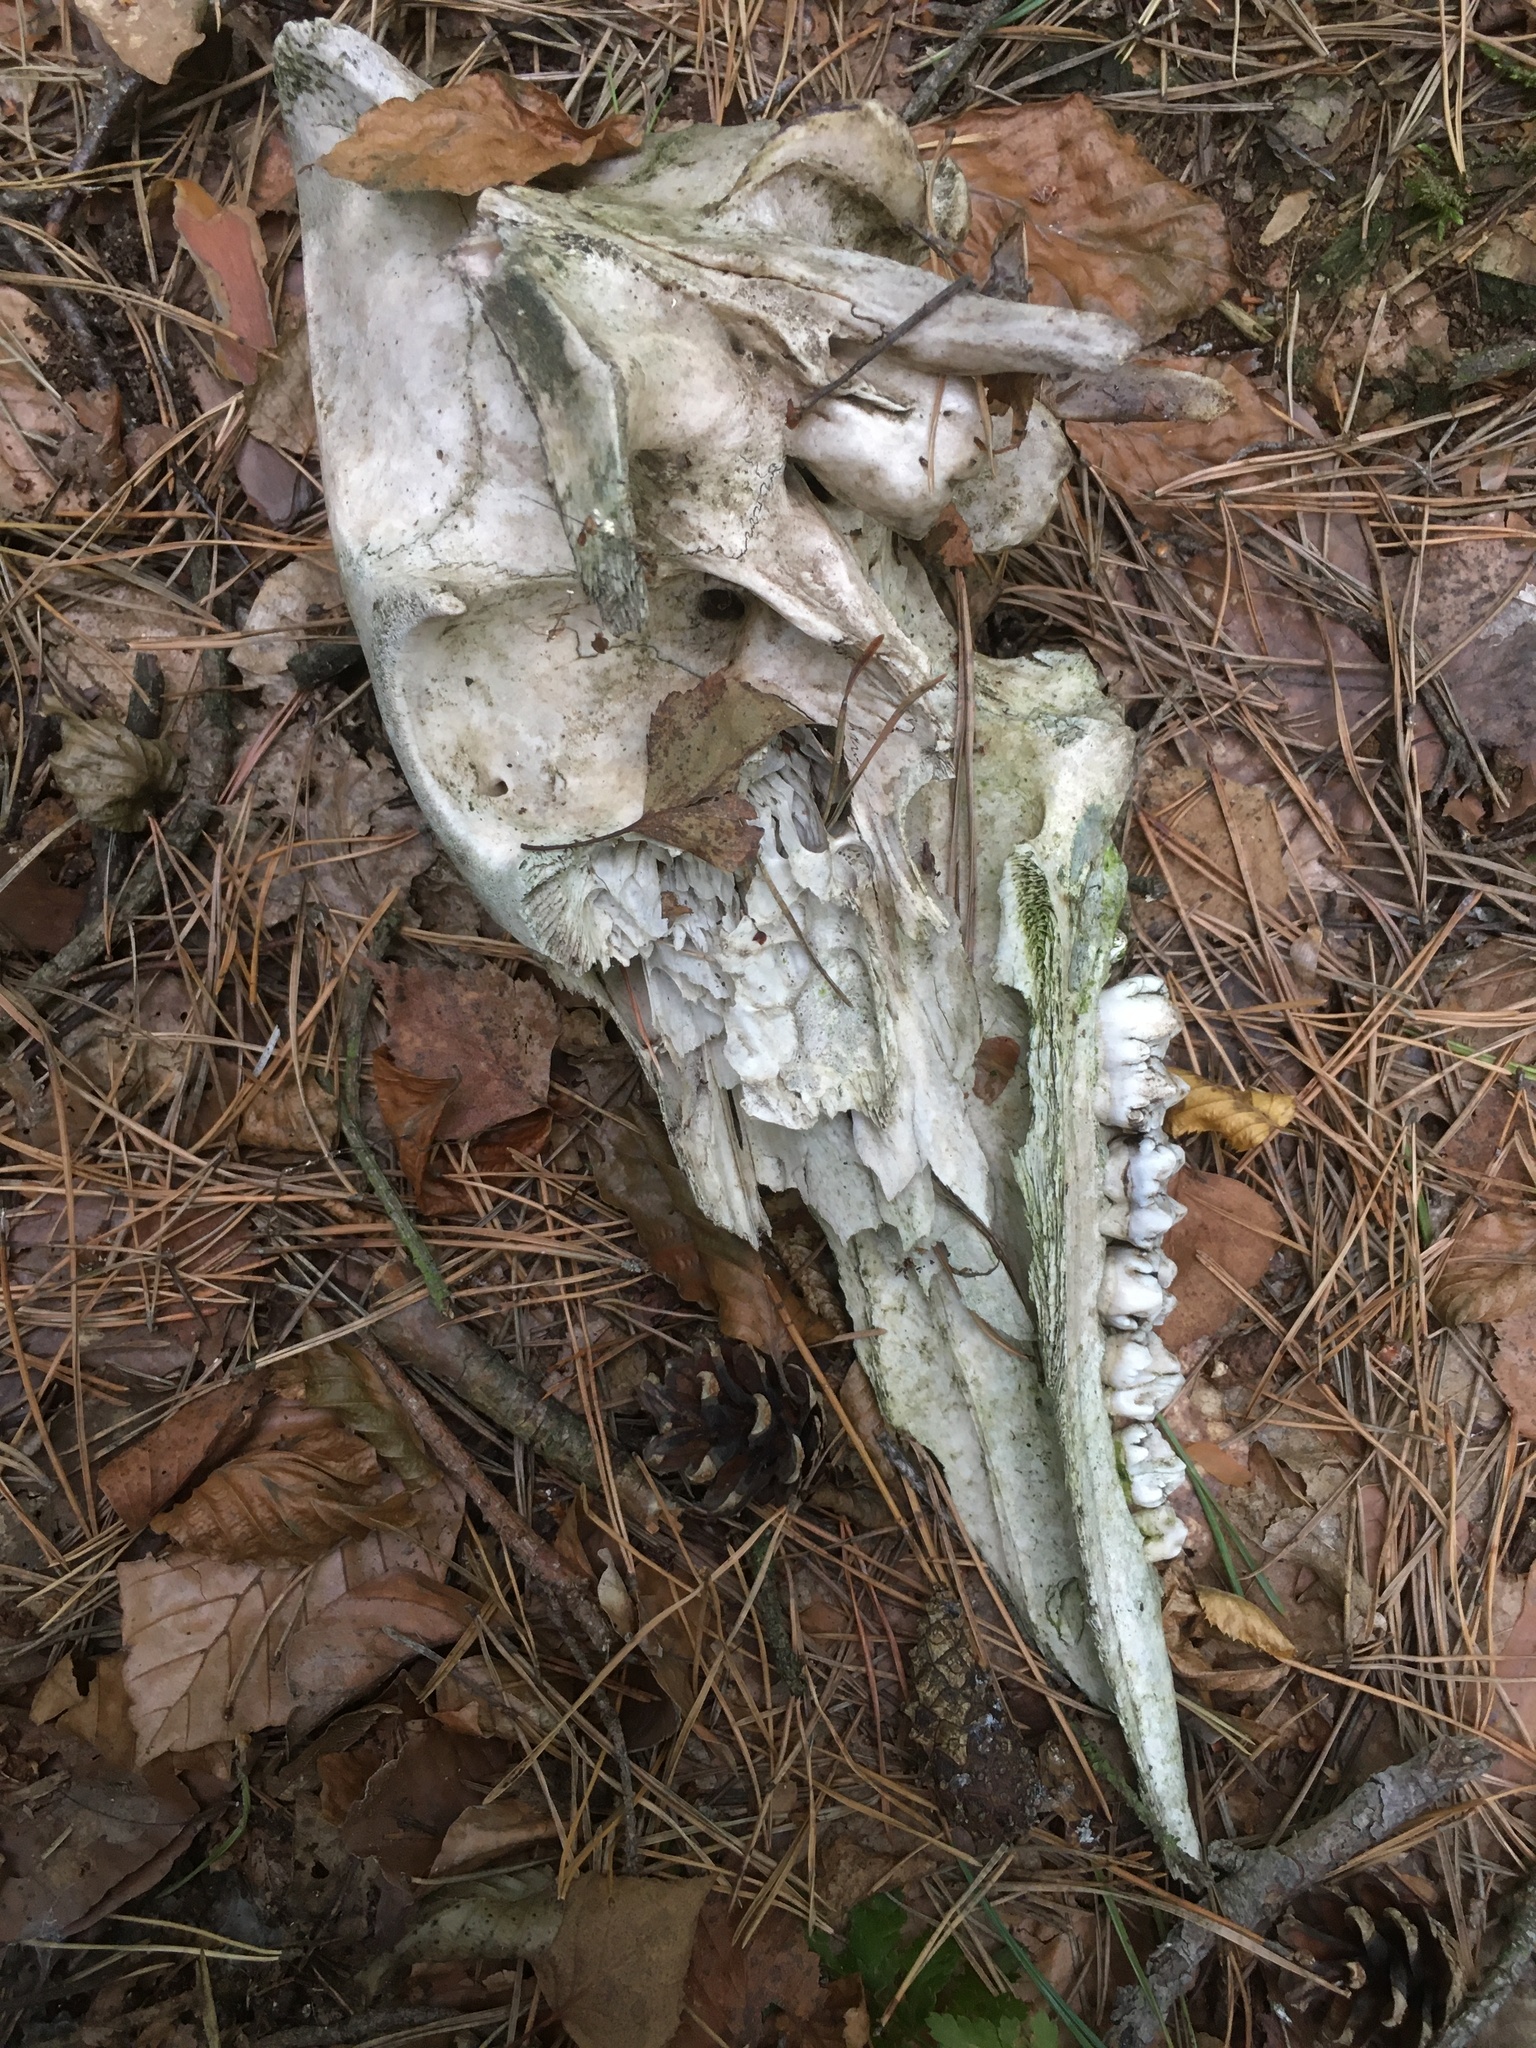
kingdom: Animalia
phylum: Chordata
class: Mammalia
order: Artiodactyla
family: Suidae
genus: Sus
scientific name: Sus scrofa
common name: Wild boar
